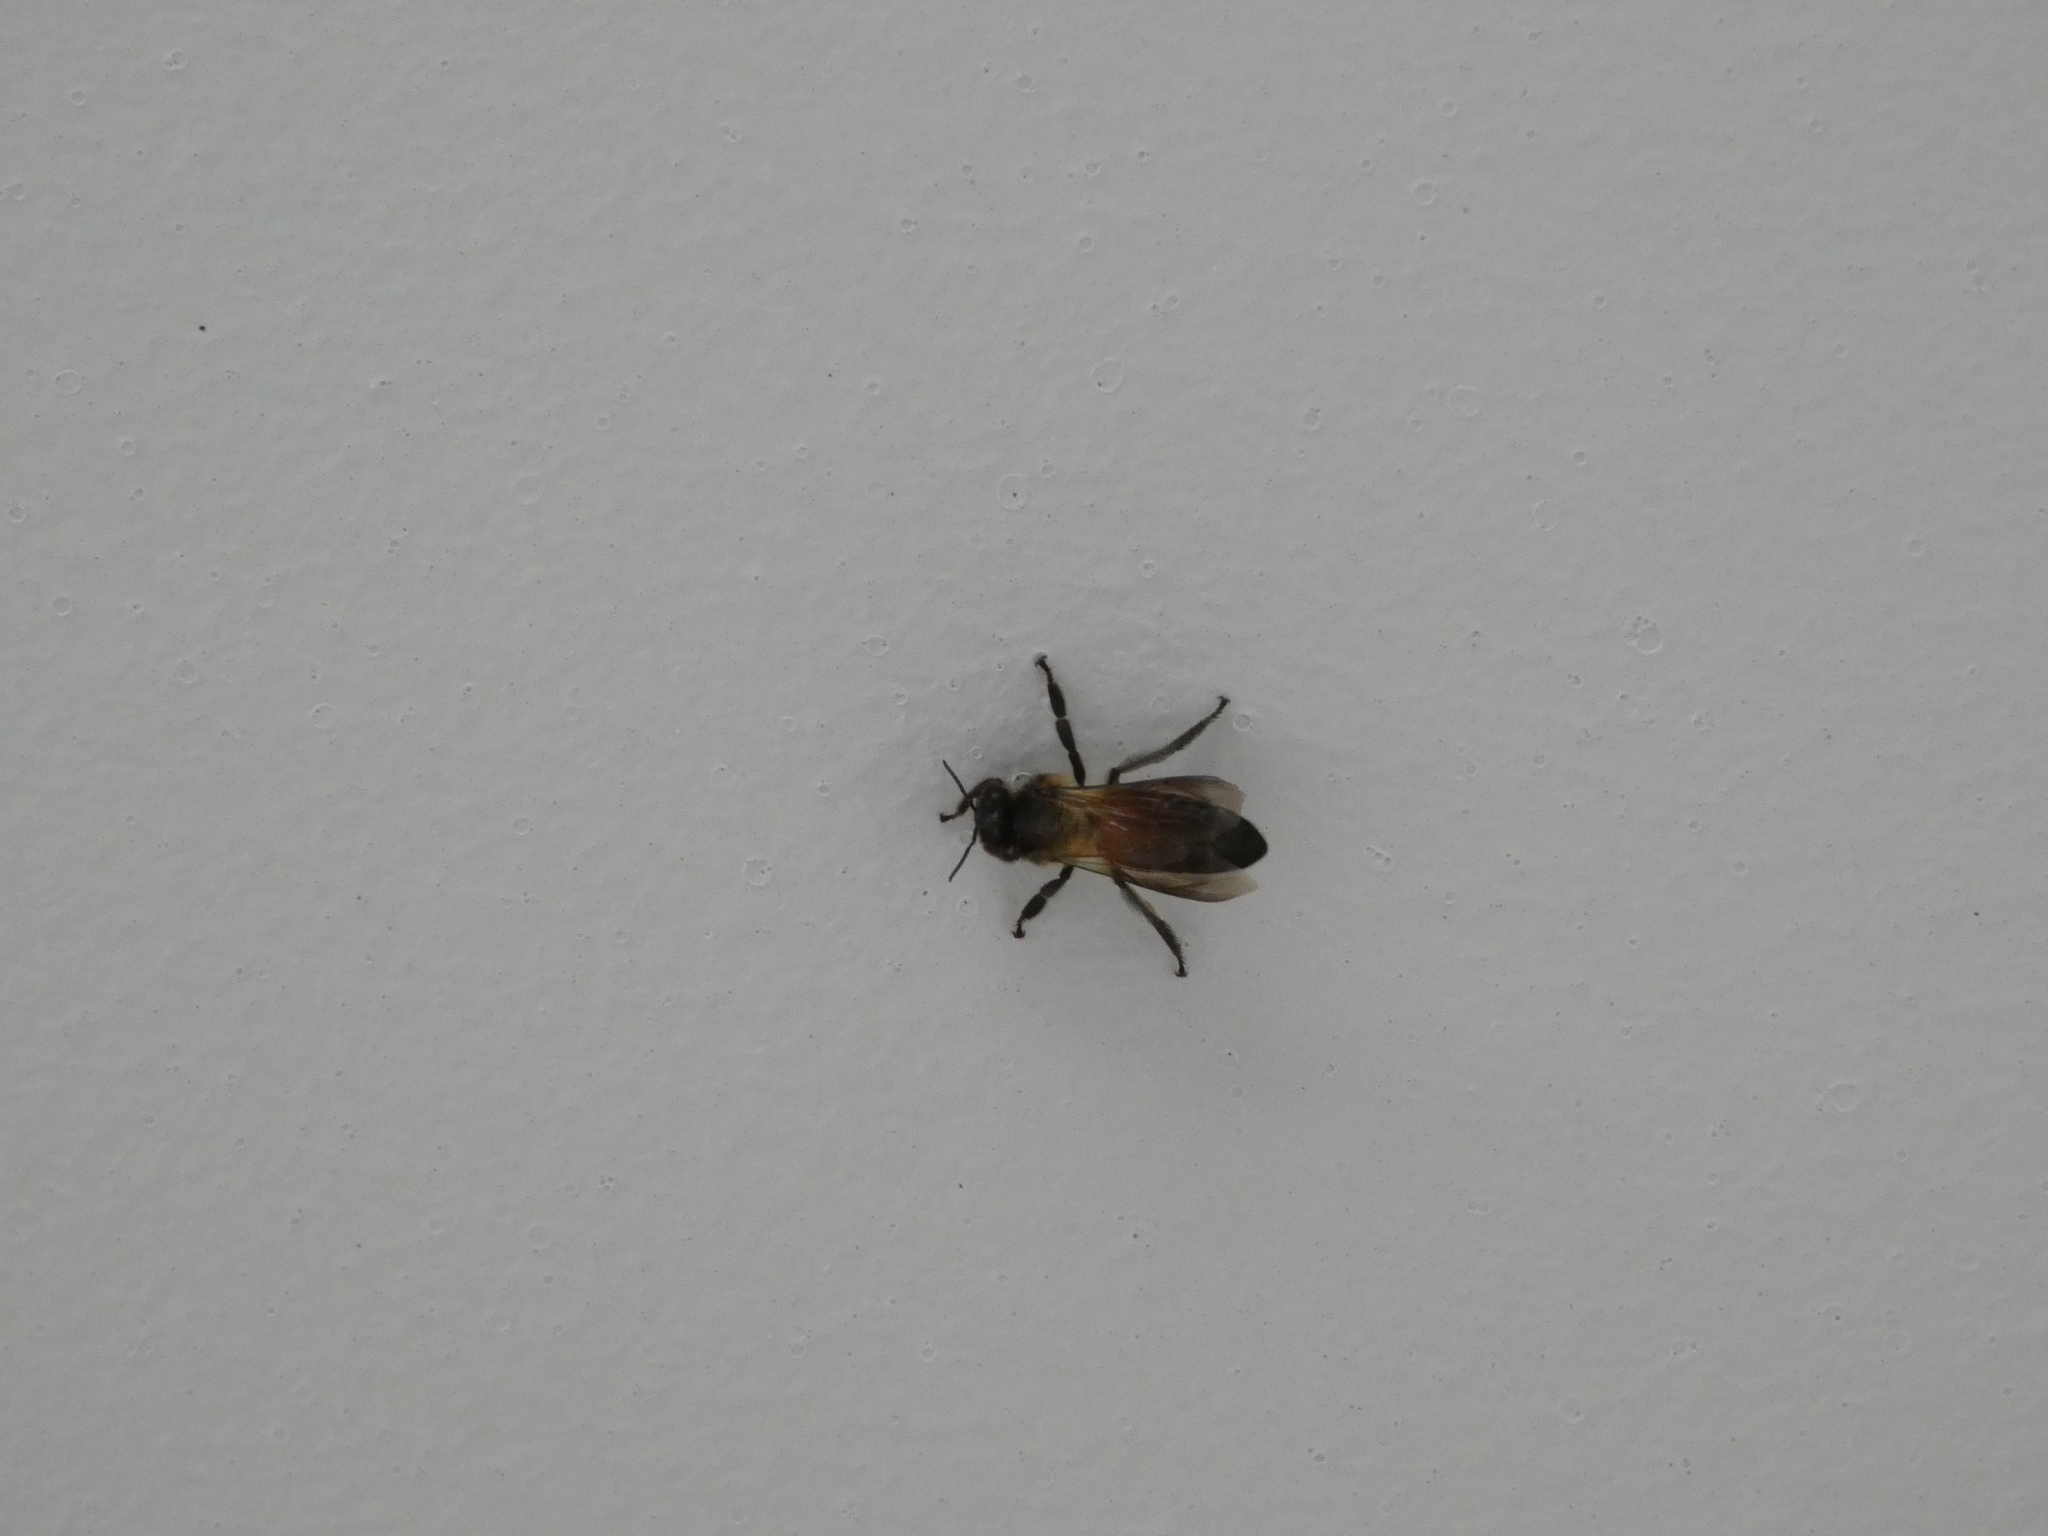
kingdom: Animalia
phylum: Arthropoda
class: Insecta
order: Hymenoptera
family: Apidae
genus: Apis
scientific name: Apis dorsata
